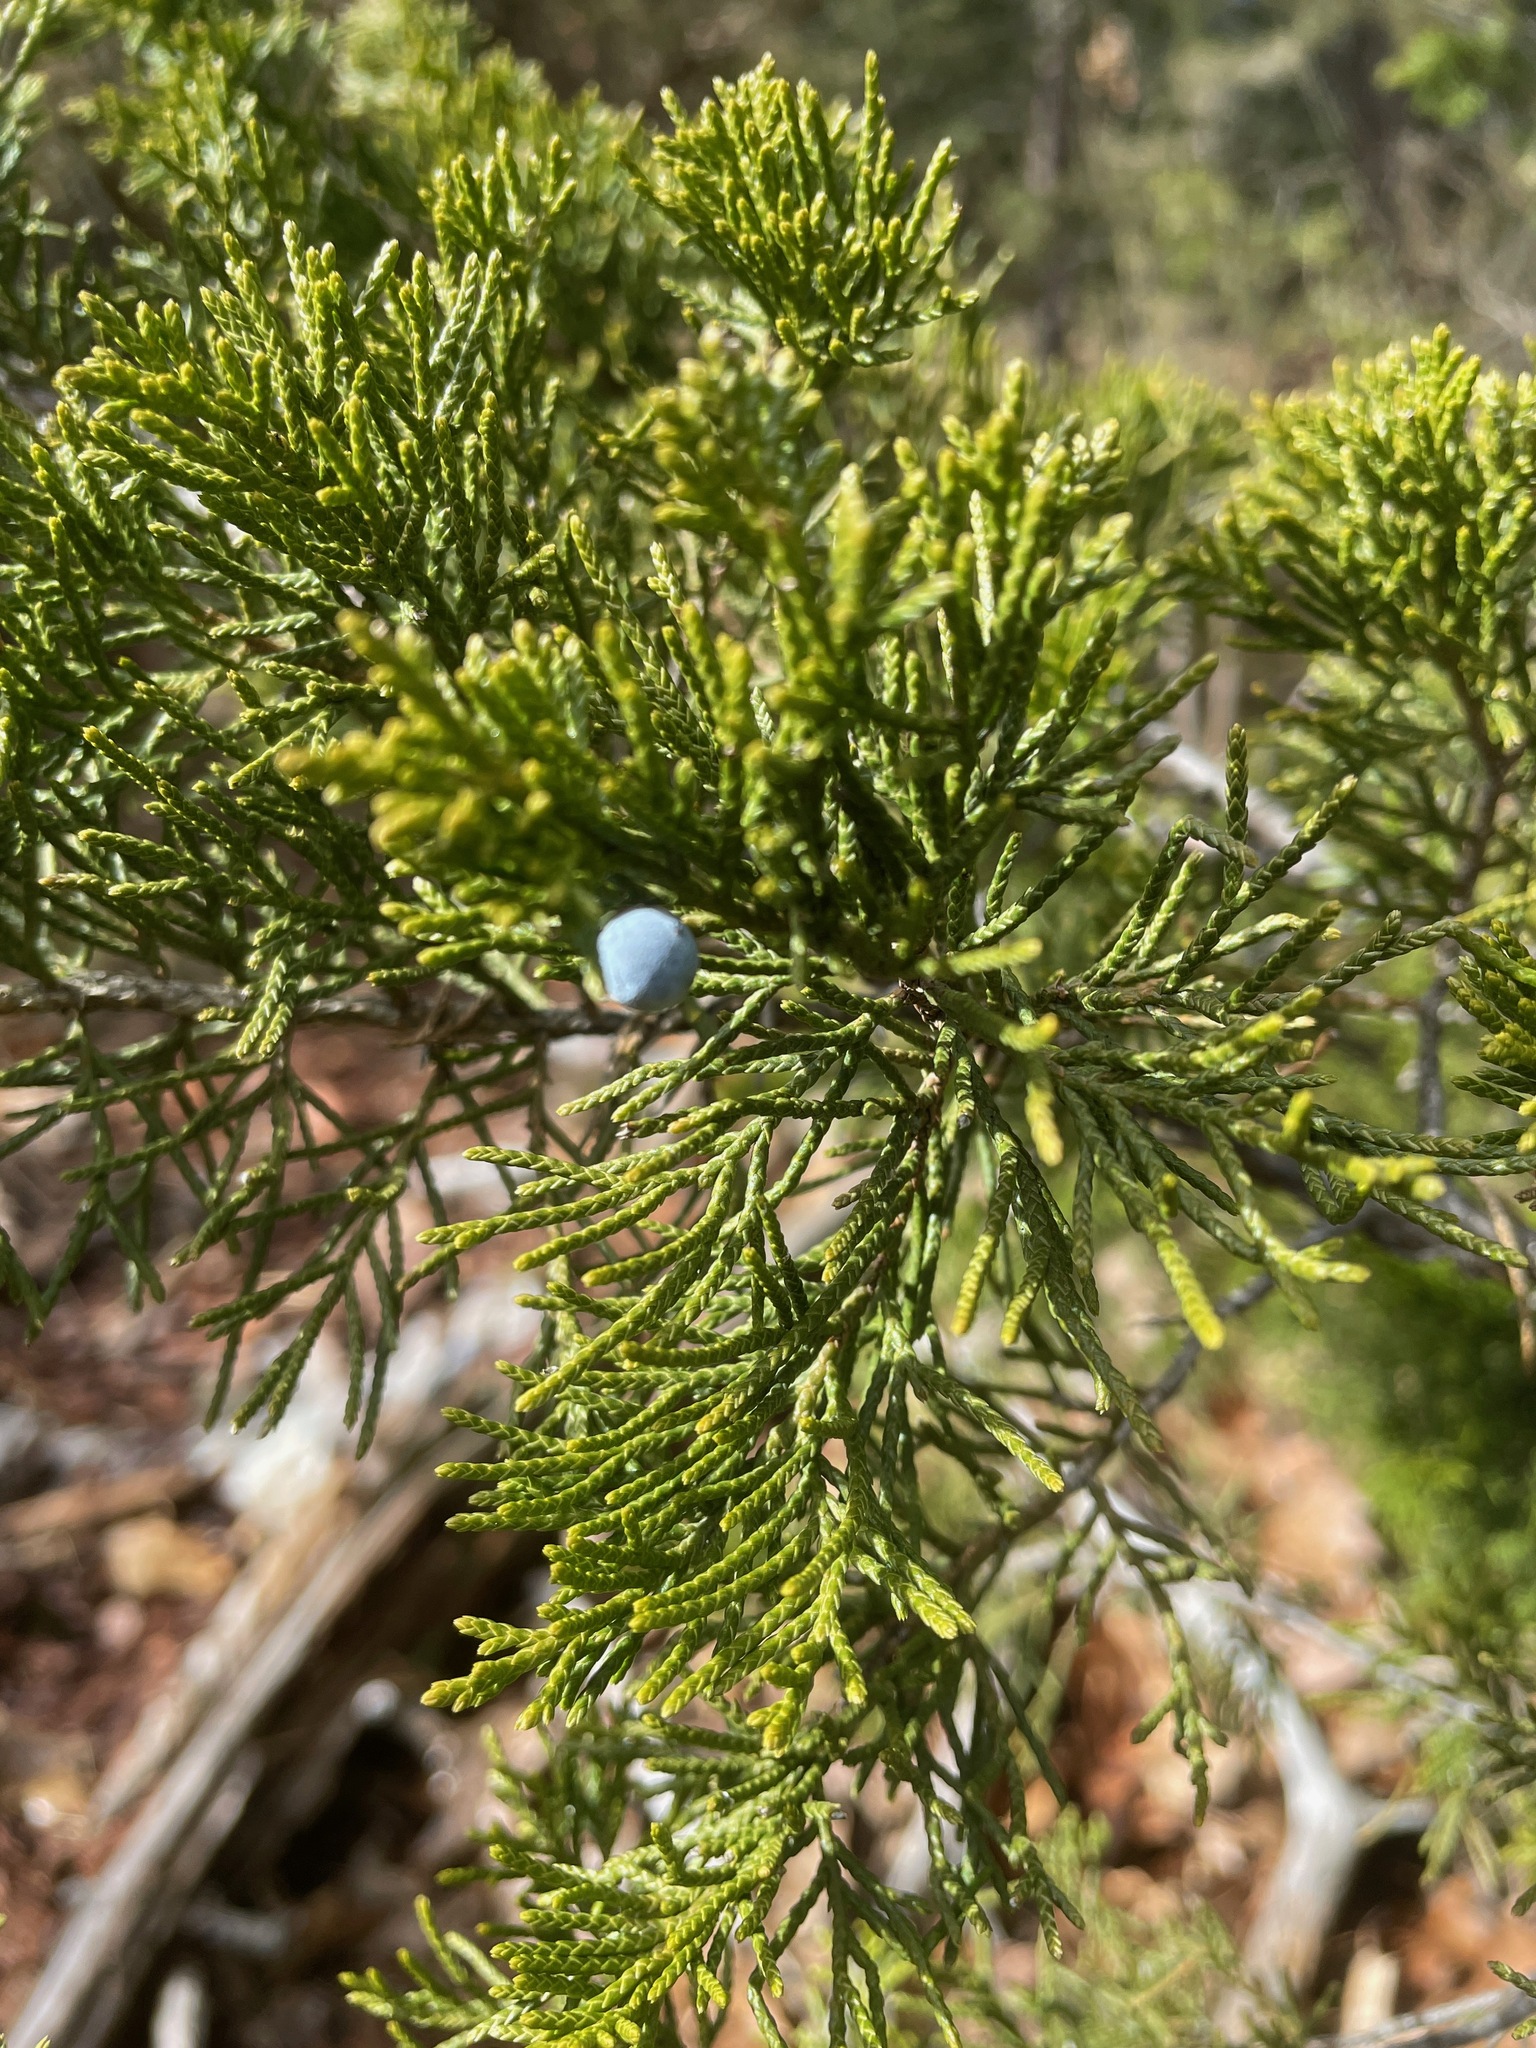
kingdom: Plantae
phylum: Tracheophyta
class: Pinopsida
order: Pinales
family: Cupressaceae
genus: Juniperus
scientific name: Juniperus virginiana
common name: Red juniper
